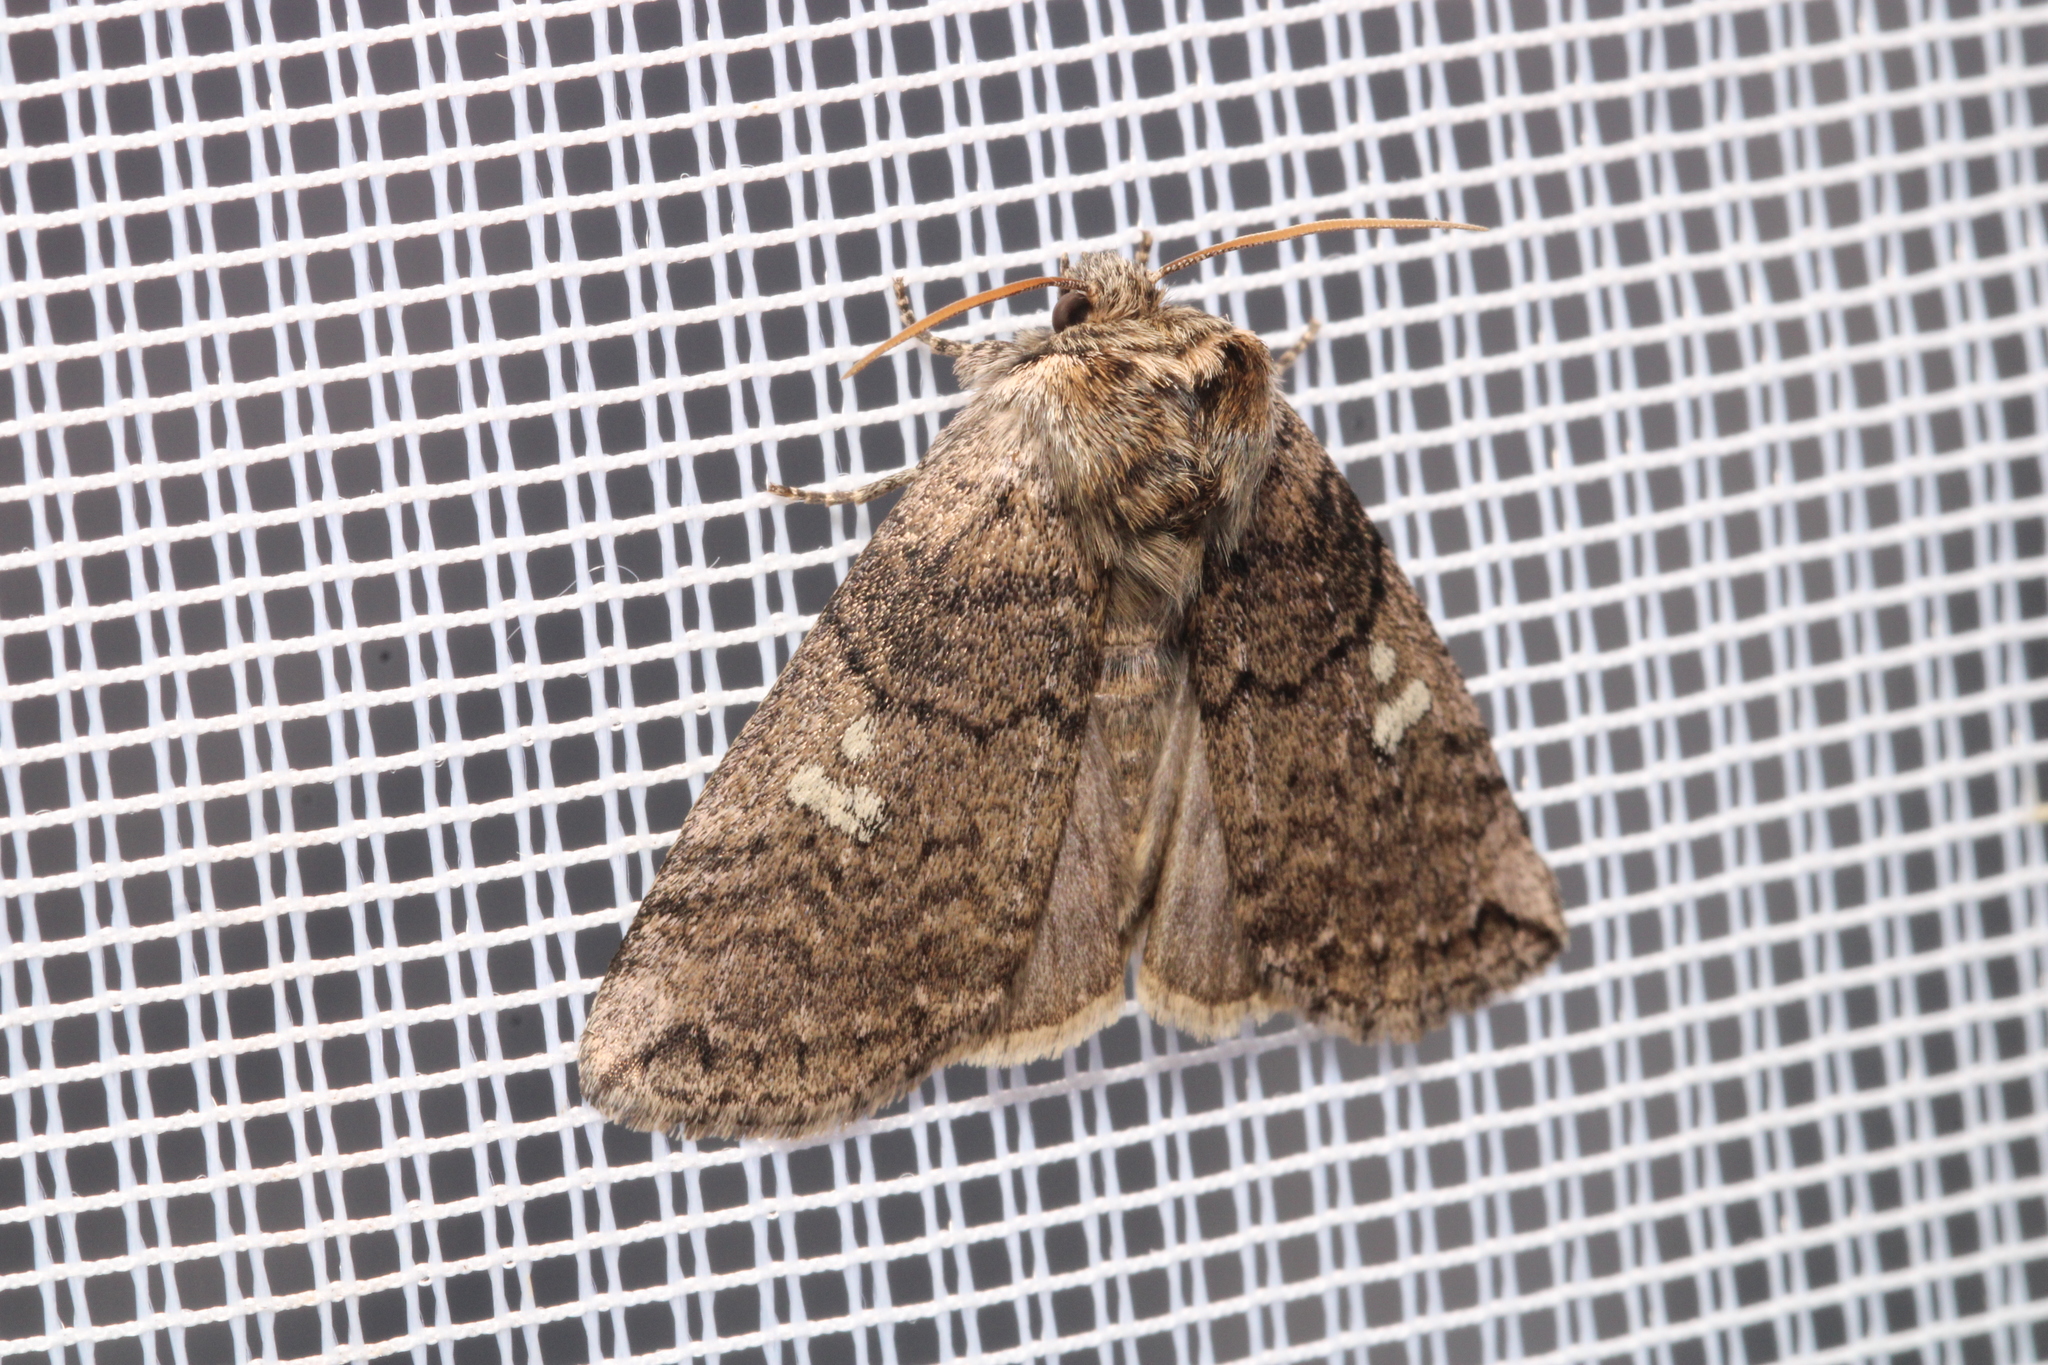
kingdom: Animalia
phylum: Arthropoda
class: Insecta
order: Lepidoptera
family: Drepanidae
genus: Tethea
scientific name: Tethea or
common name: Poplar lutestring
